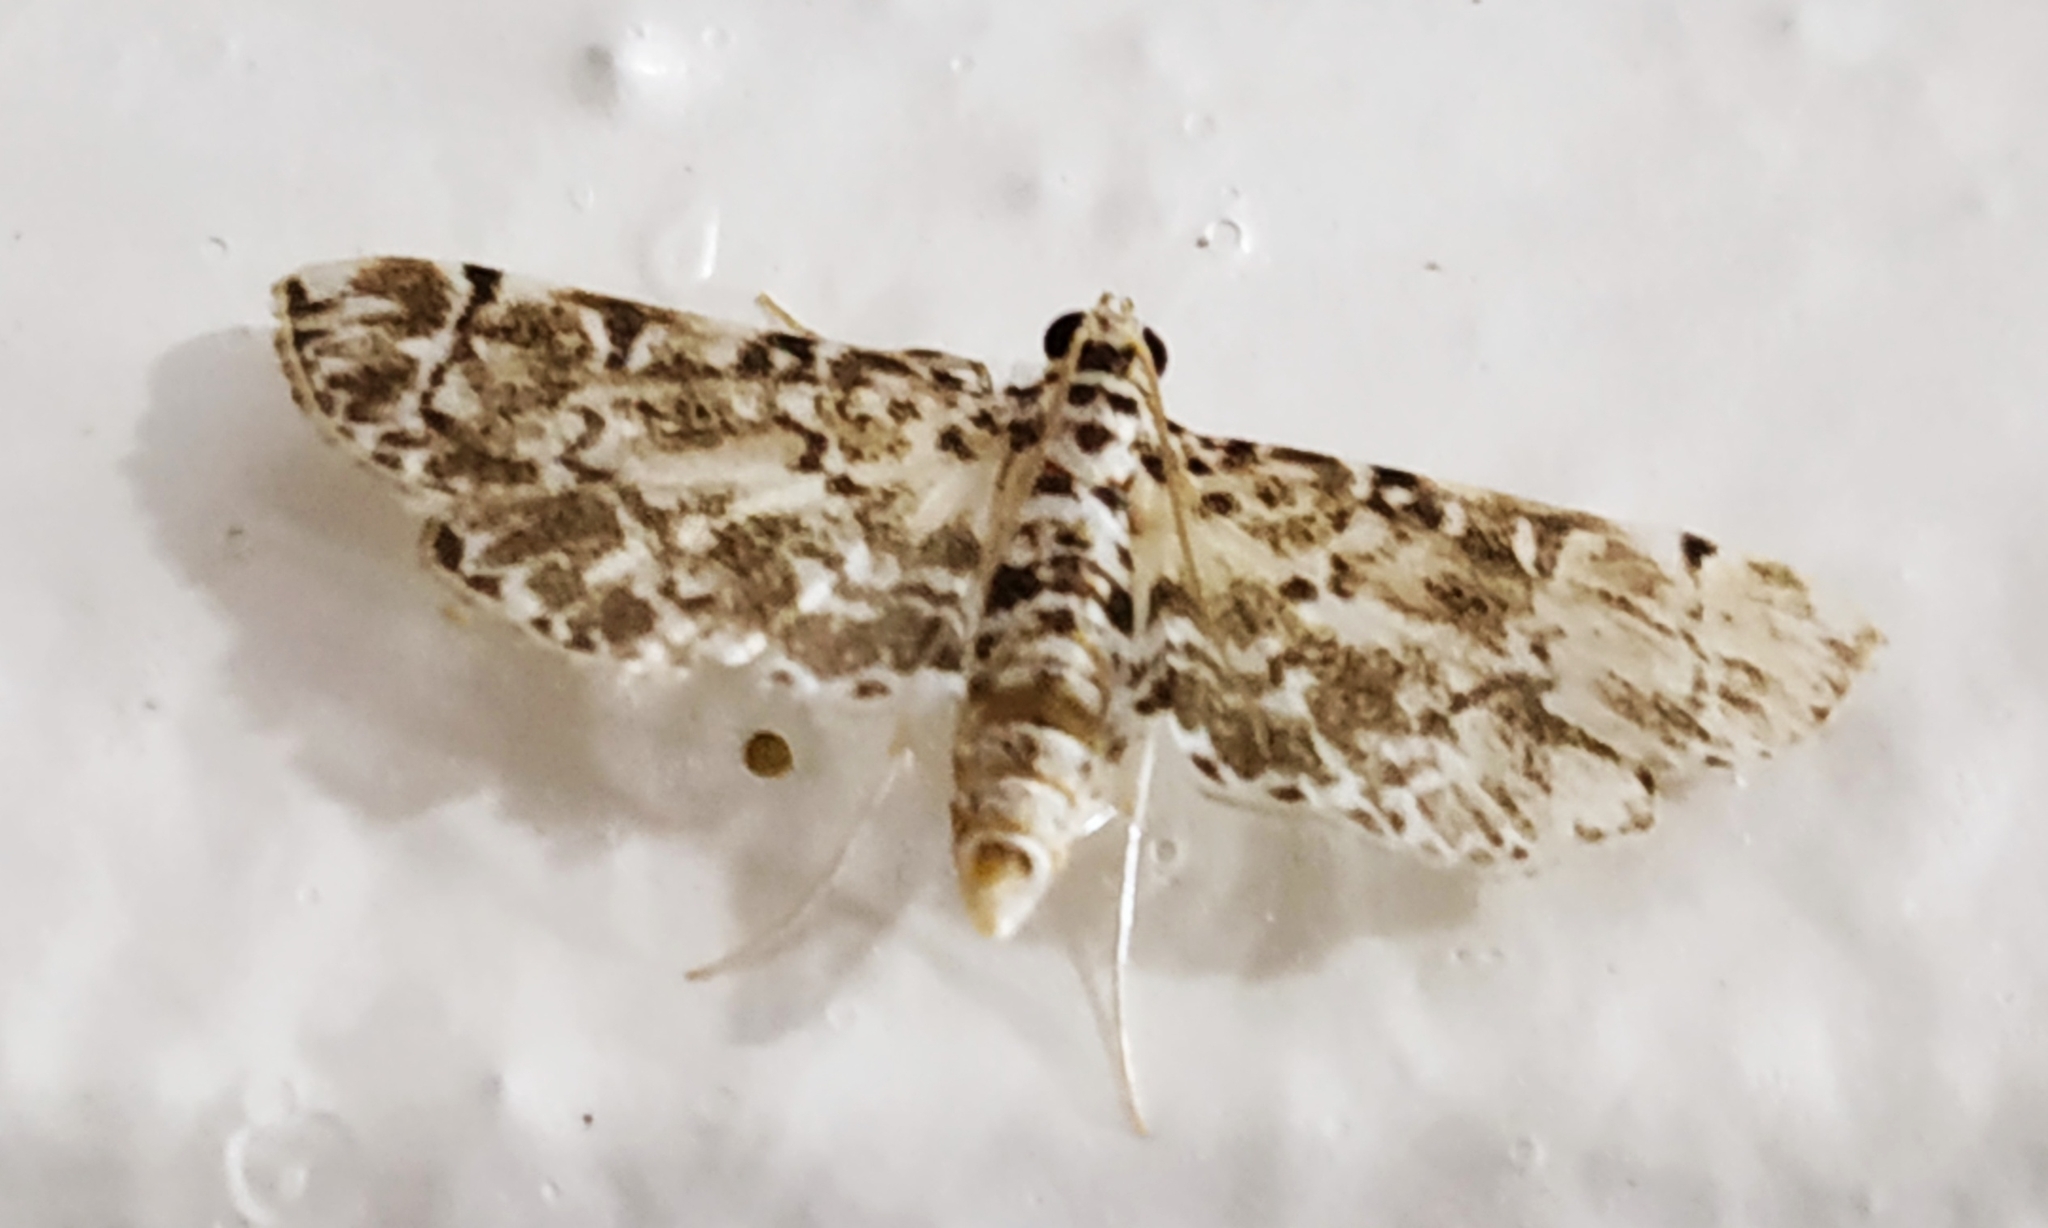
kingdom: Animalia
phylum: Arthropoda
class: Insecta
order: Lepidoptera
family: Crambidae
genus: Metoeca
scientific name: Metoeca foedalis
